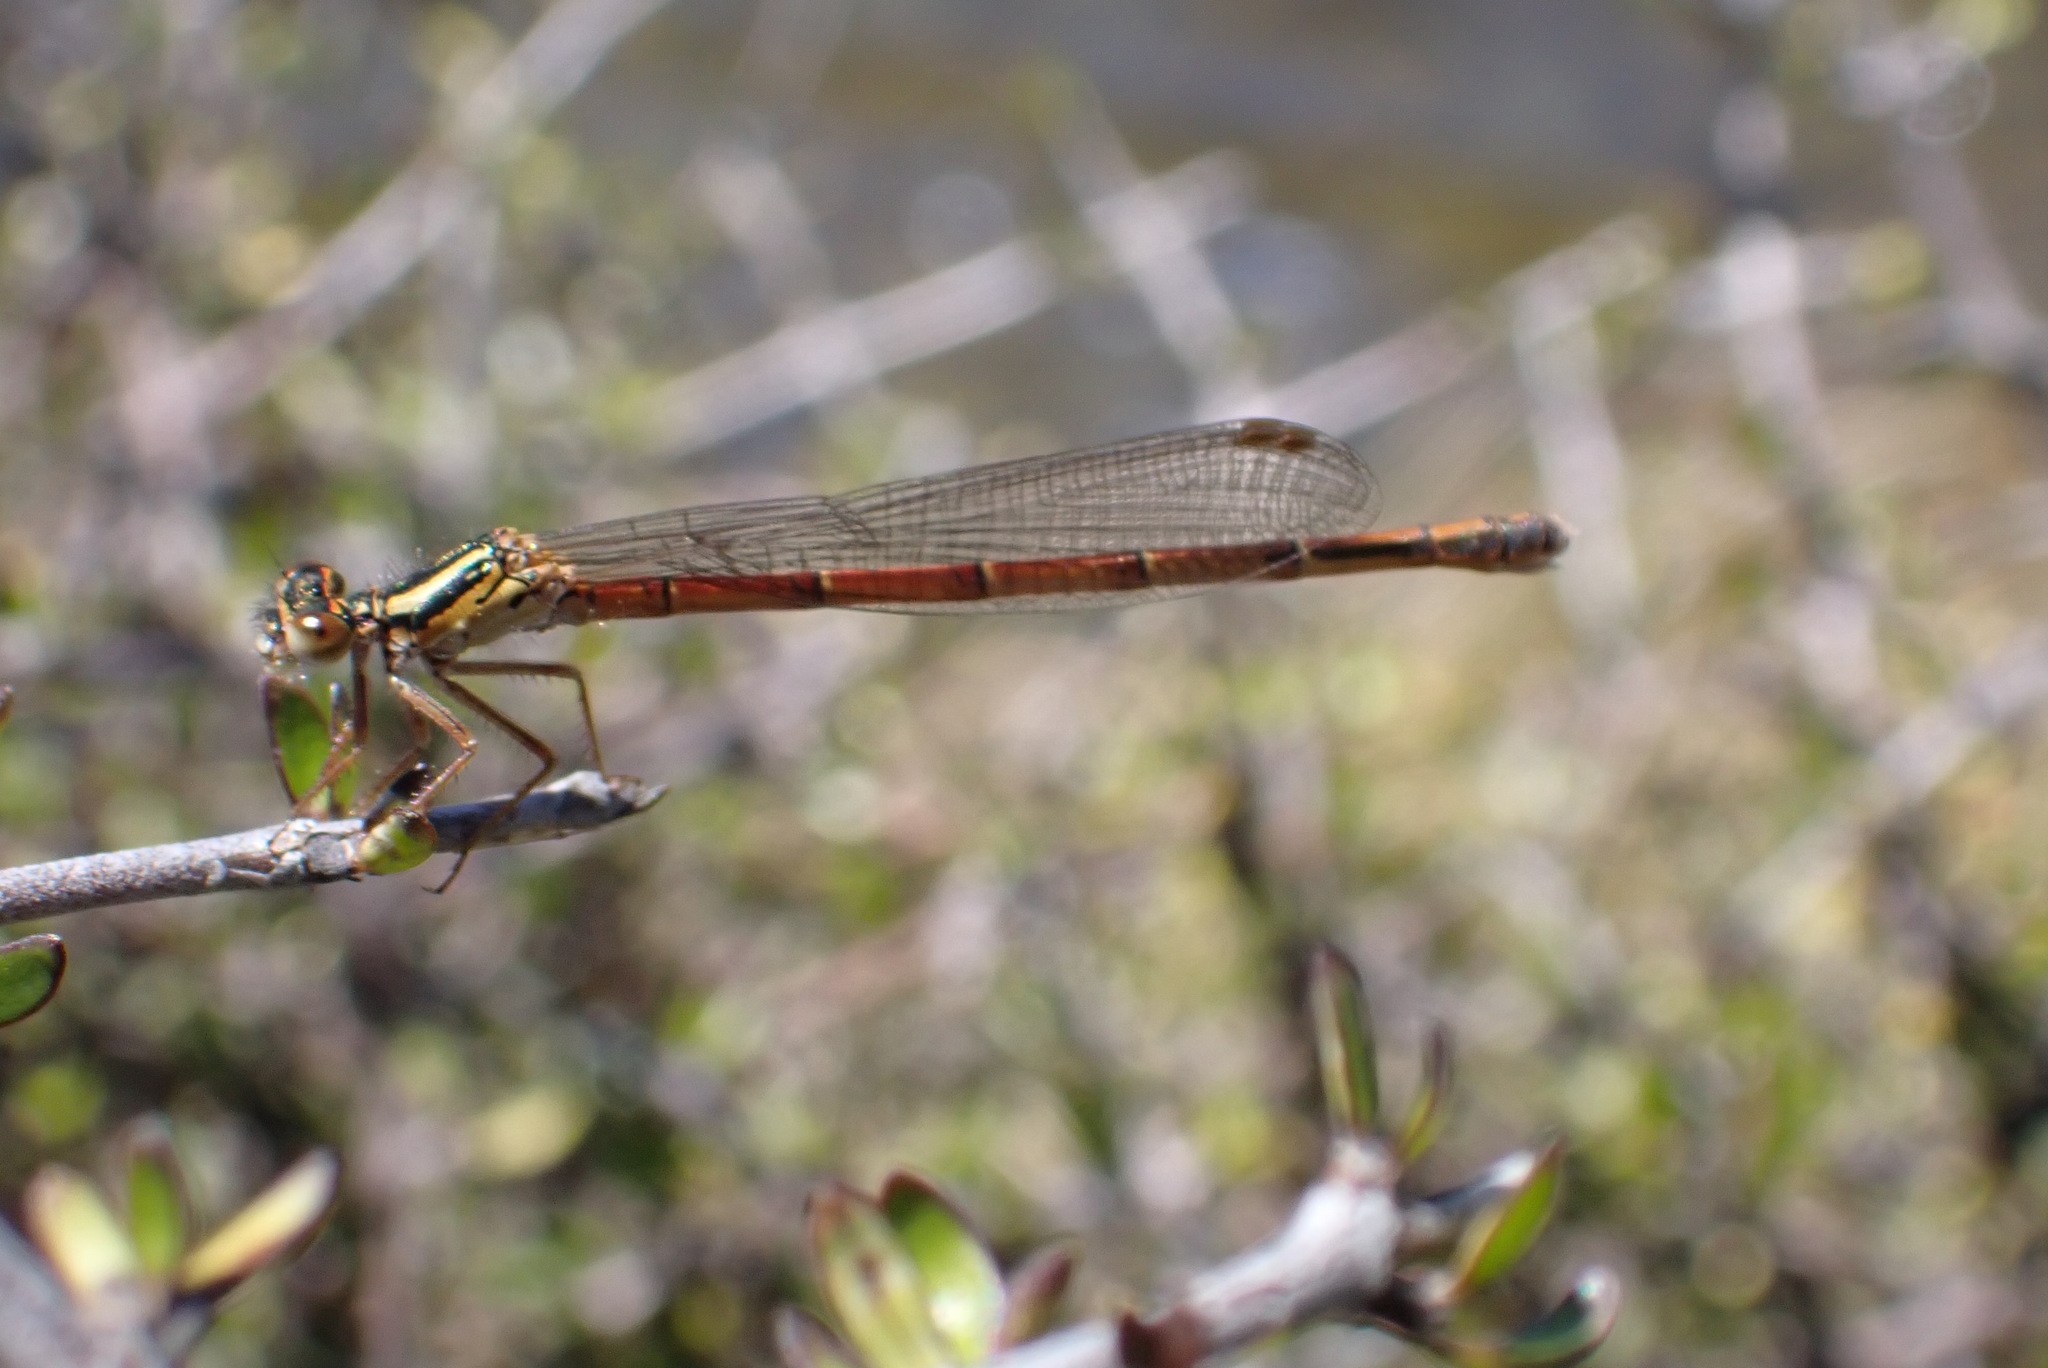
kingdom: Animalia
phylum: Arthropoda
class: Insecta
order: Odonata
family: Coenagrionidae
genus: Xanthocnemis
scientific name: Xanthocnemis zealandica
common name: Common redcoat damselfly
